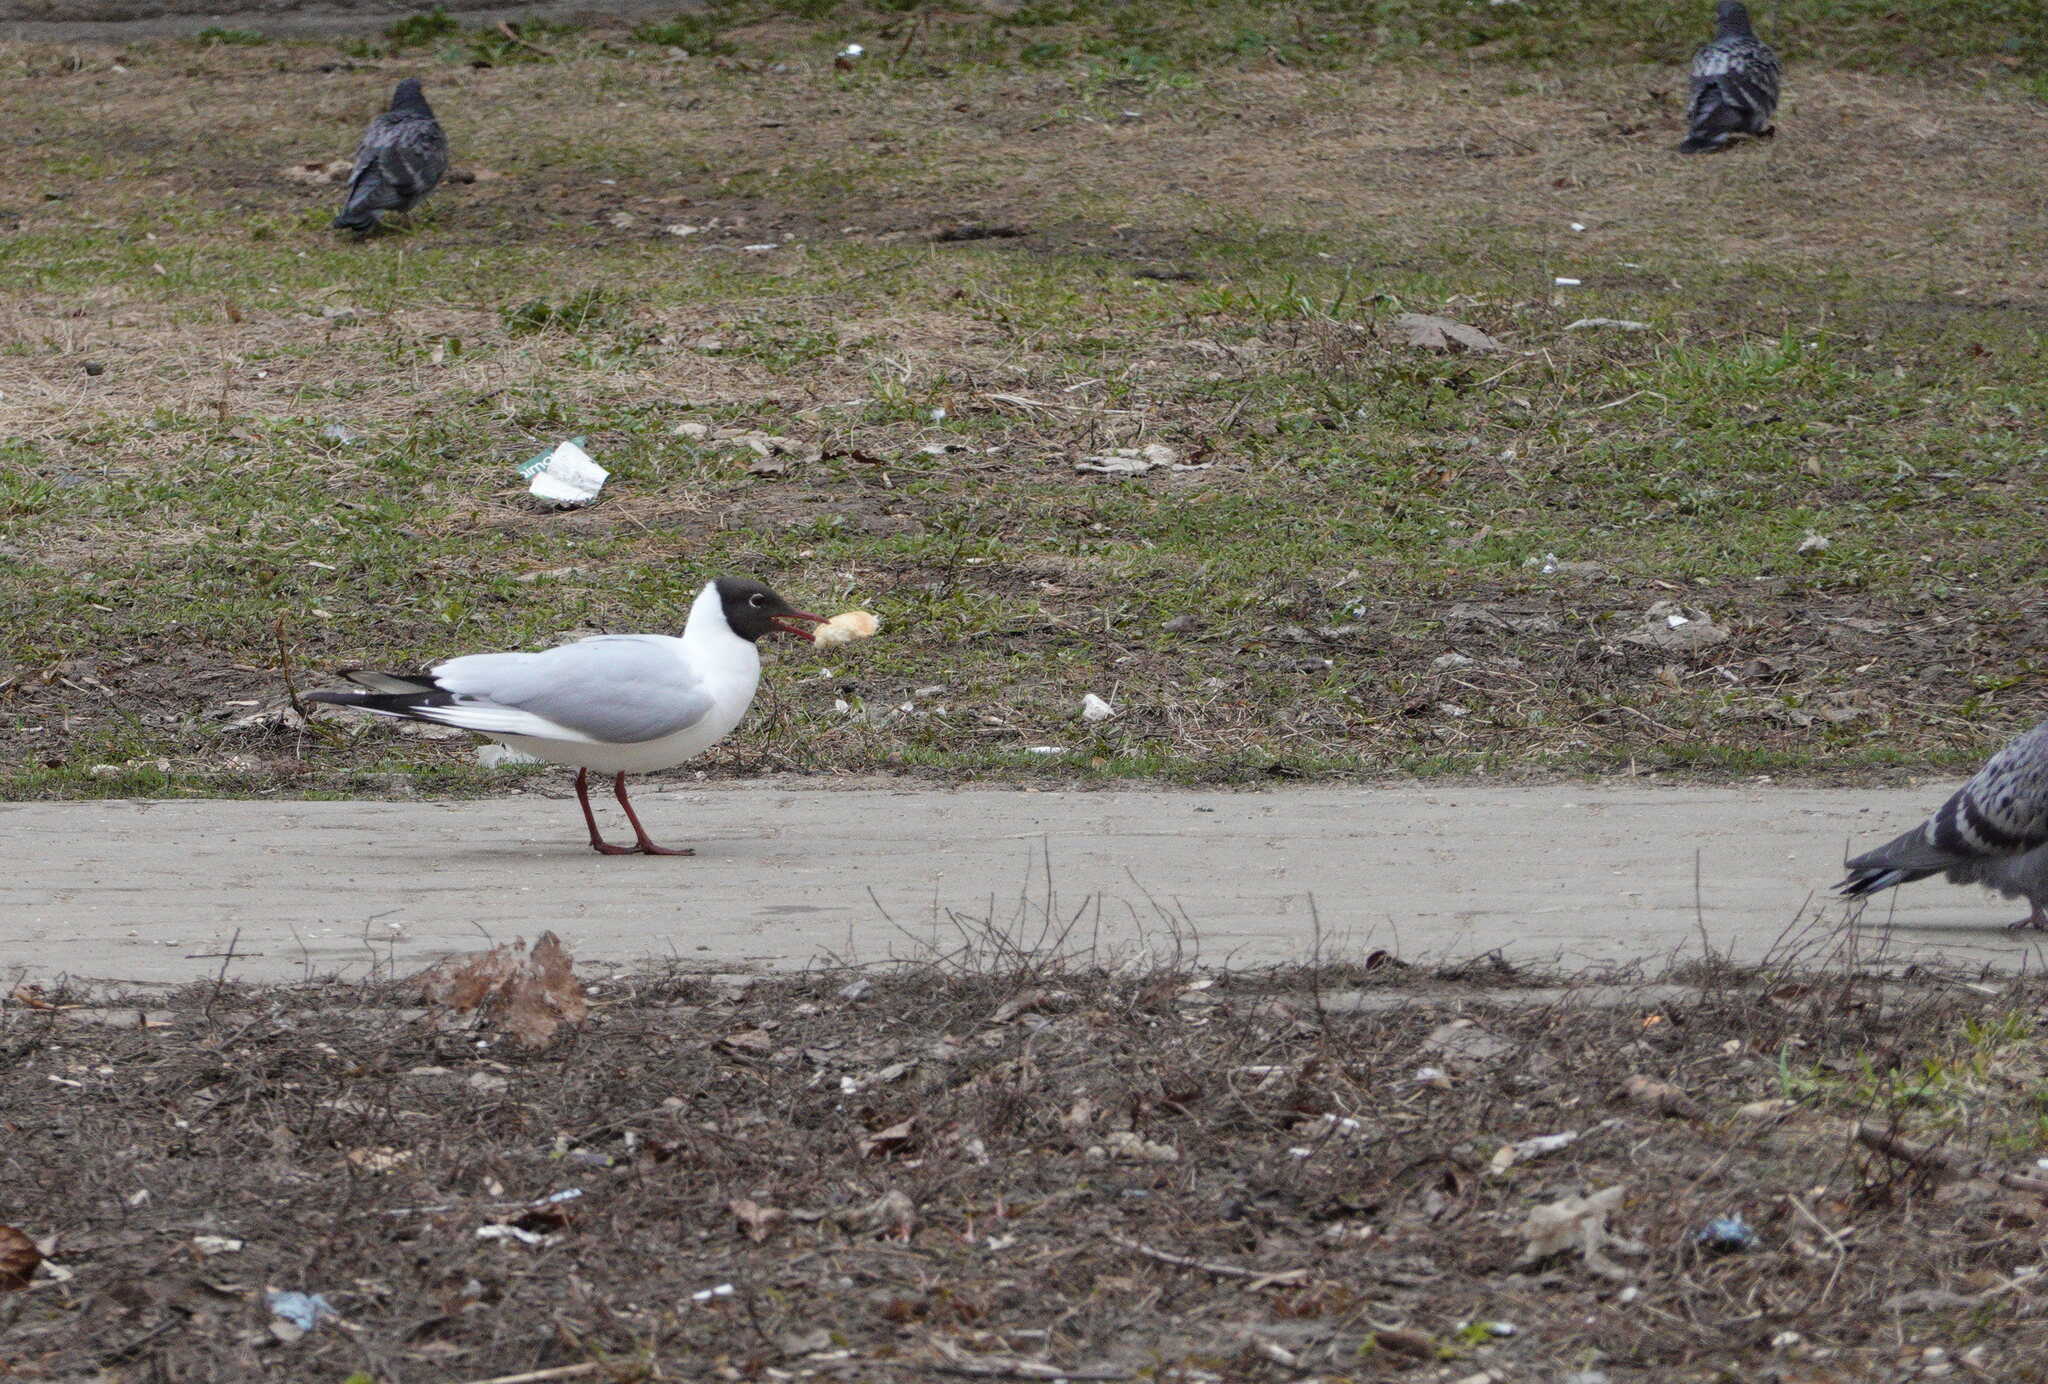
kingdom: Animalia
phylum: Chordata
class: Aves
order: Charadriiformes
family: Laridae
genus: Chroicocephalus
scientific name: Chroicocephalus ridibundus
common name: Black-headed gull
